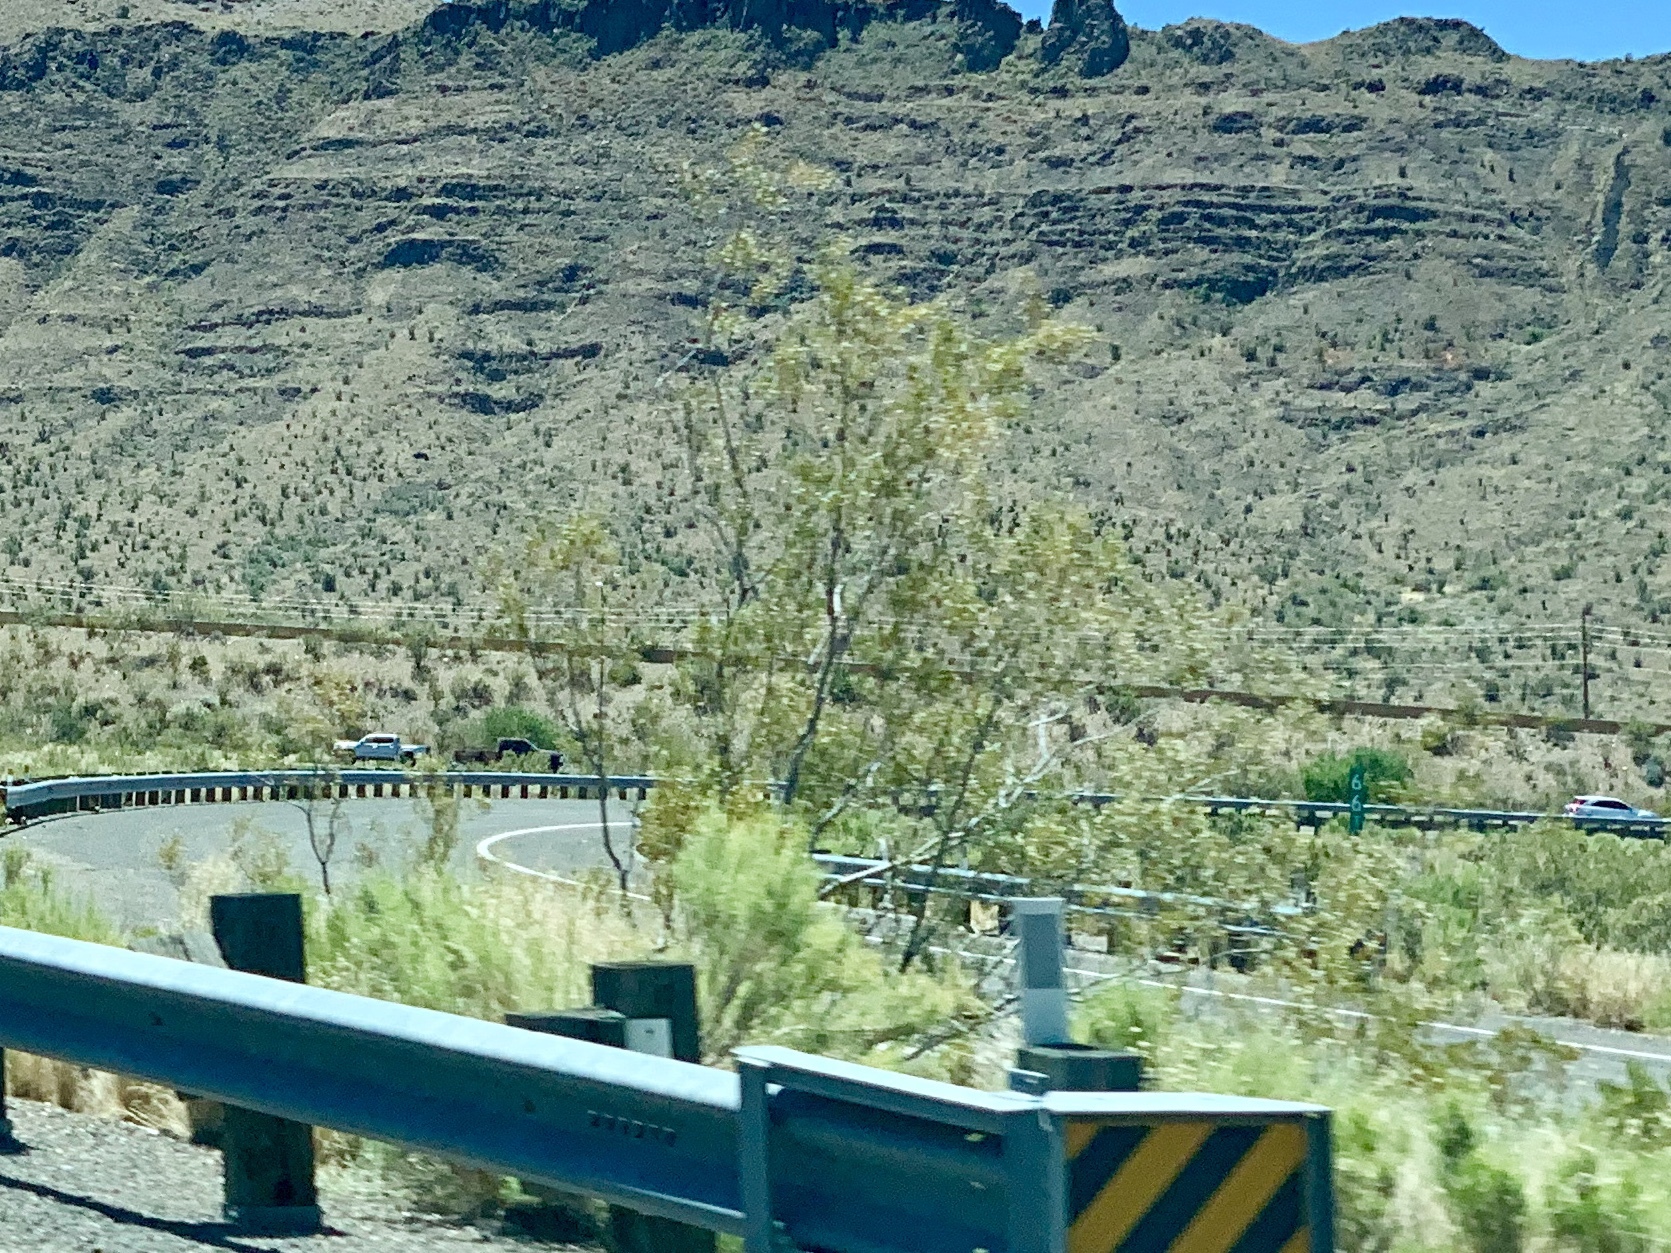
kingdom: Plantae
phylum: Tracheophyta
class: Magnoliopsida
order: Zygophyllales
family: Zygophyllaceae
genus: Larrea
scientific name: Larrea tridentata
